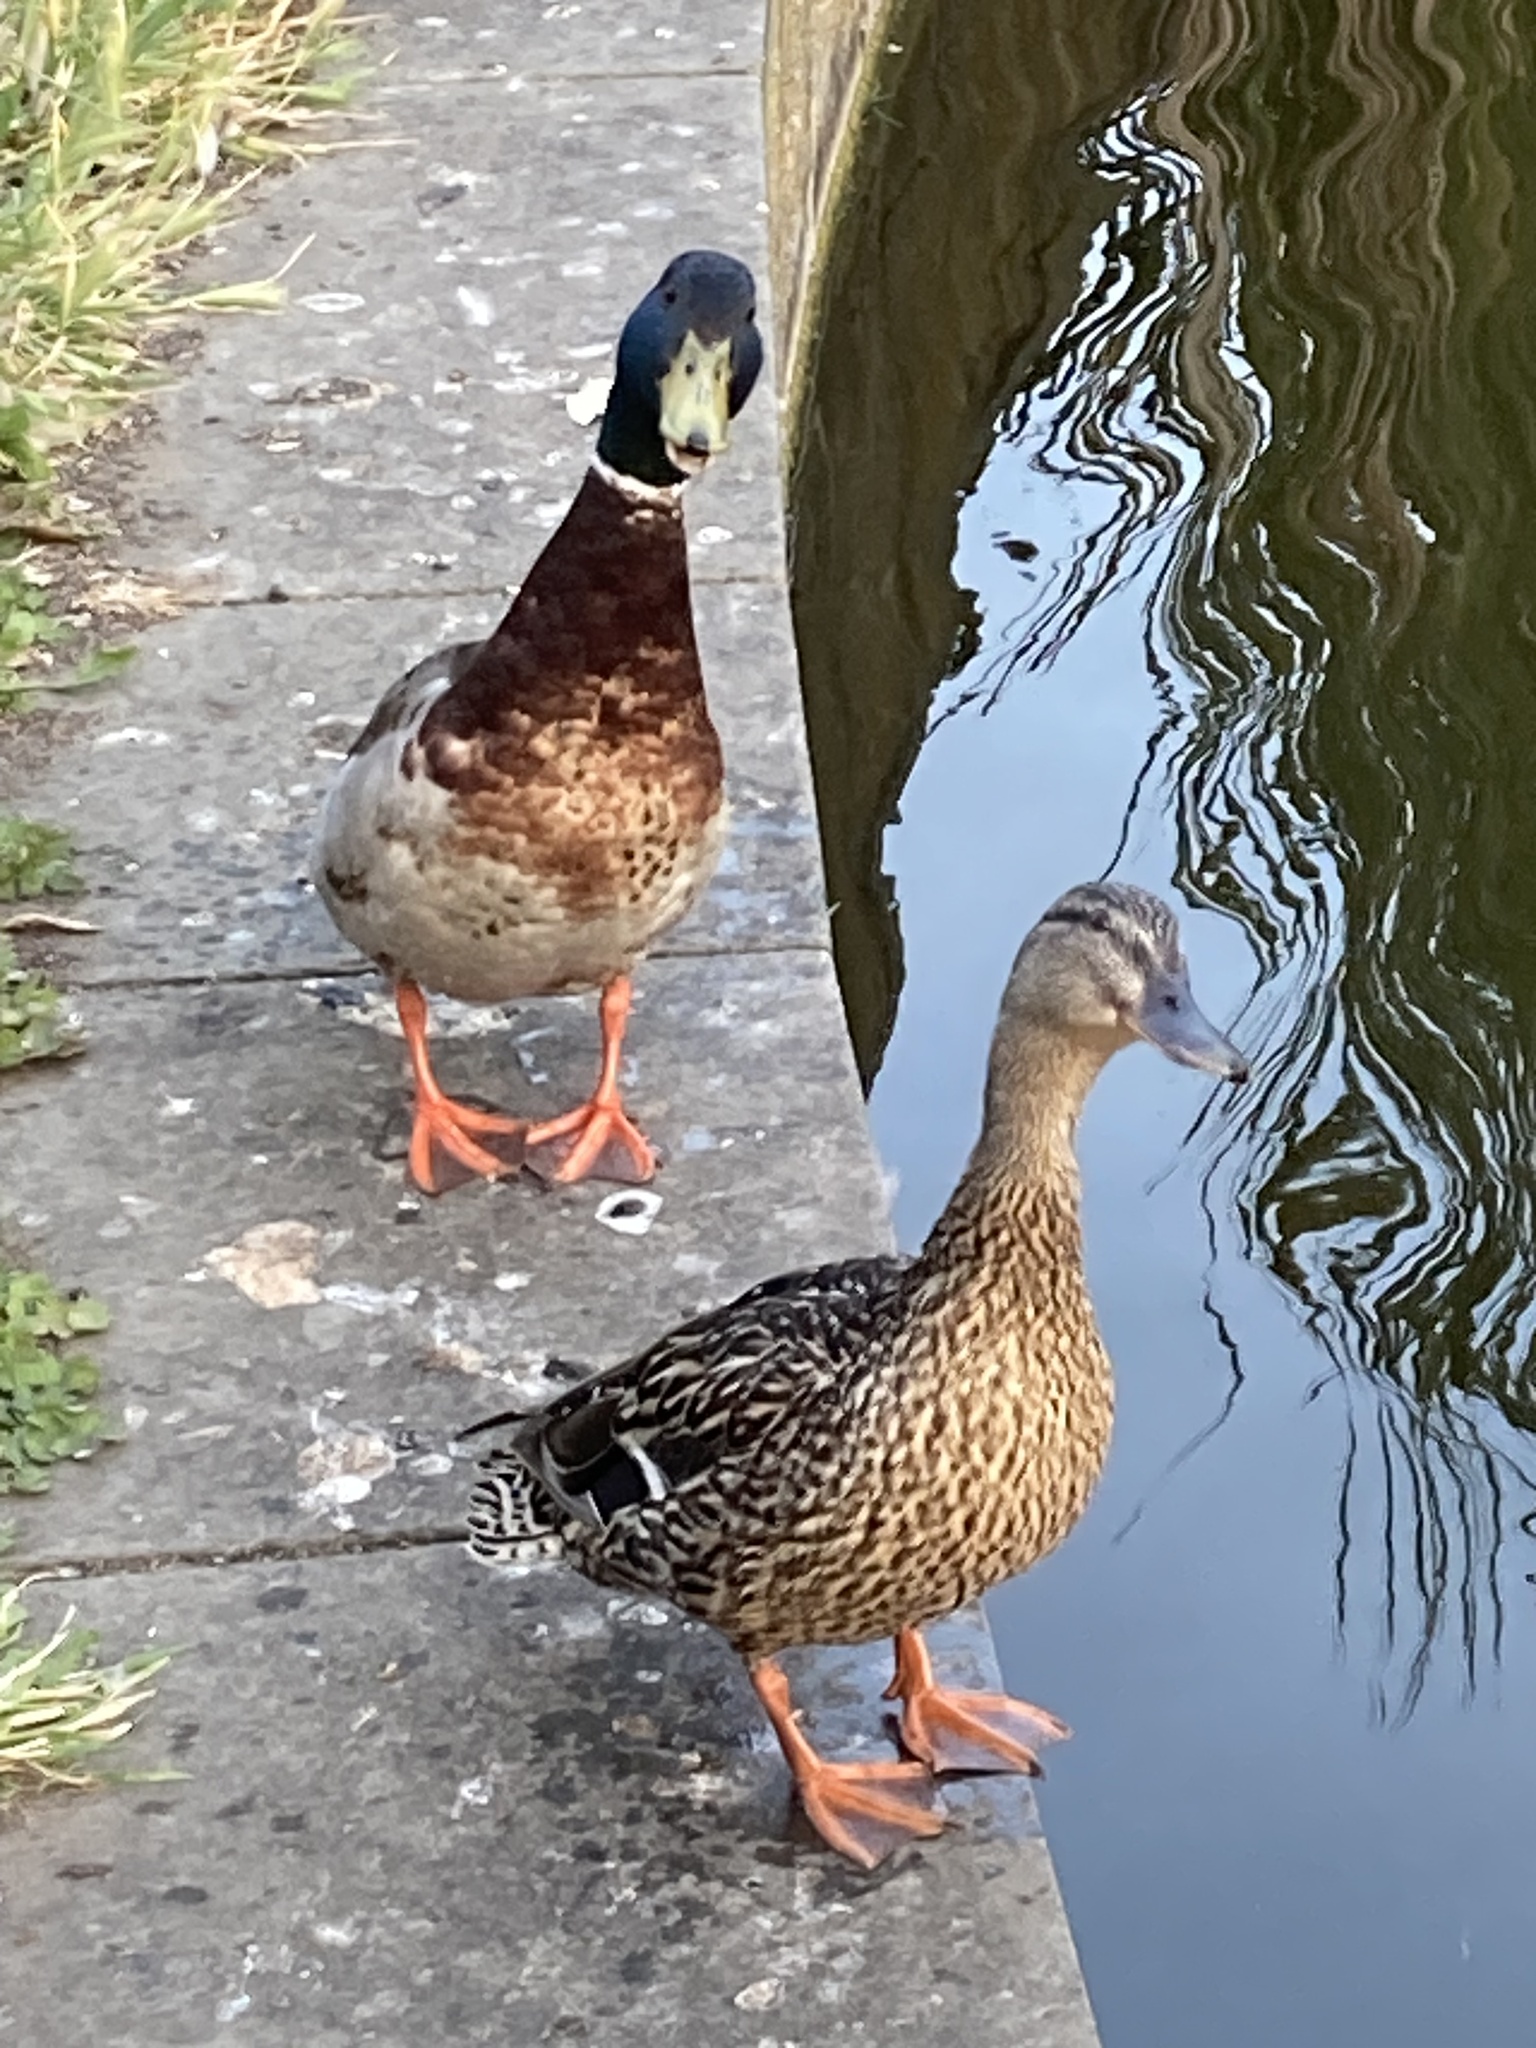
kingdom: Animalia
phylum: Chordata
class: Aves
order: Anseriformes
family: Anatidae
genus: Anas
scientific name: Anas platyrhynchos
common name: Mallard
